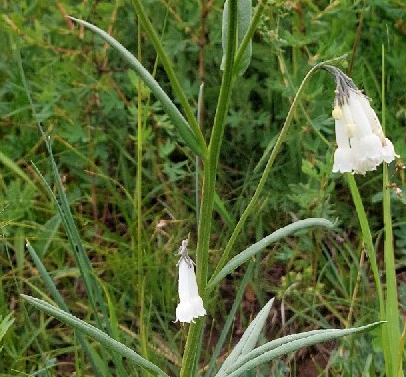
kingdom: Plantae
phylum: Tracheophyta
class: Magnoliopsida
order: Boraginales
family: Boraginaceae
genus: Mertensia
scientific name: Mertensia davurica
